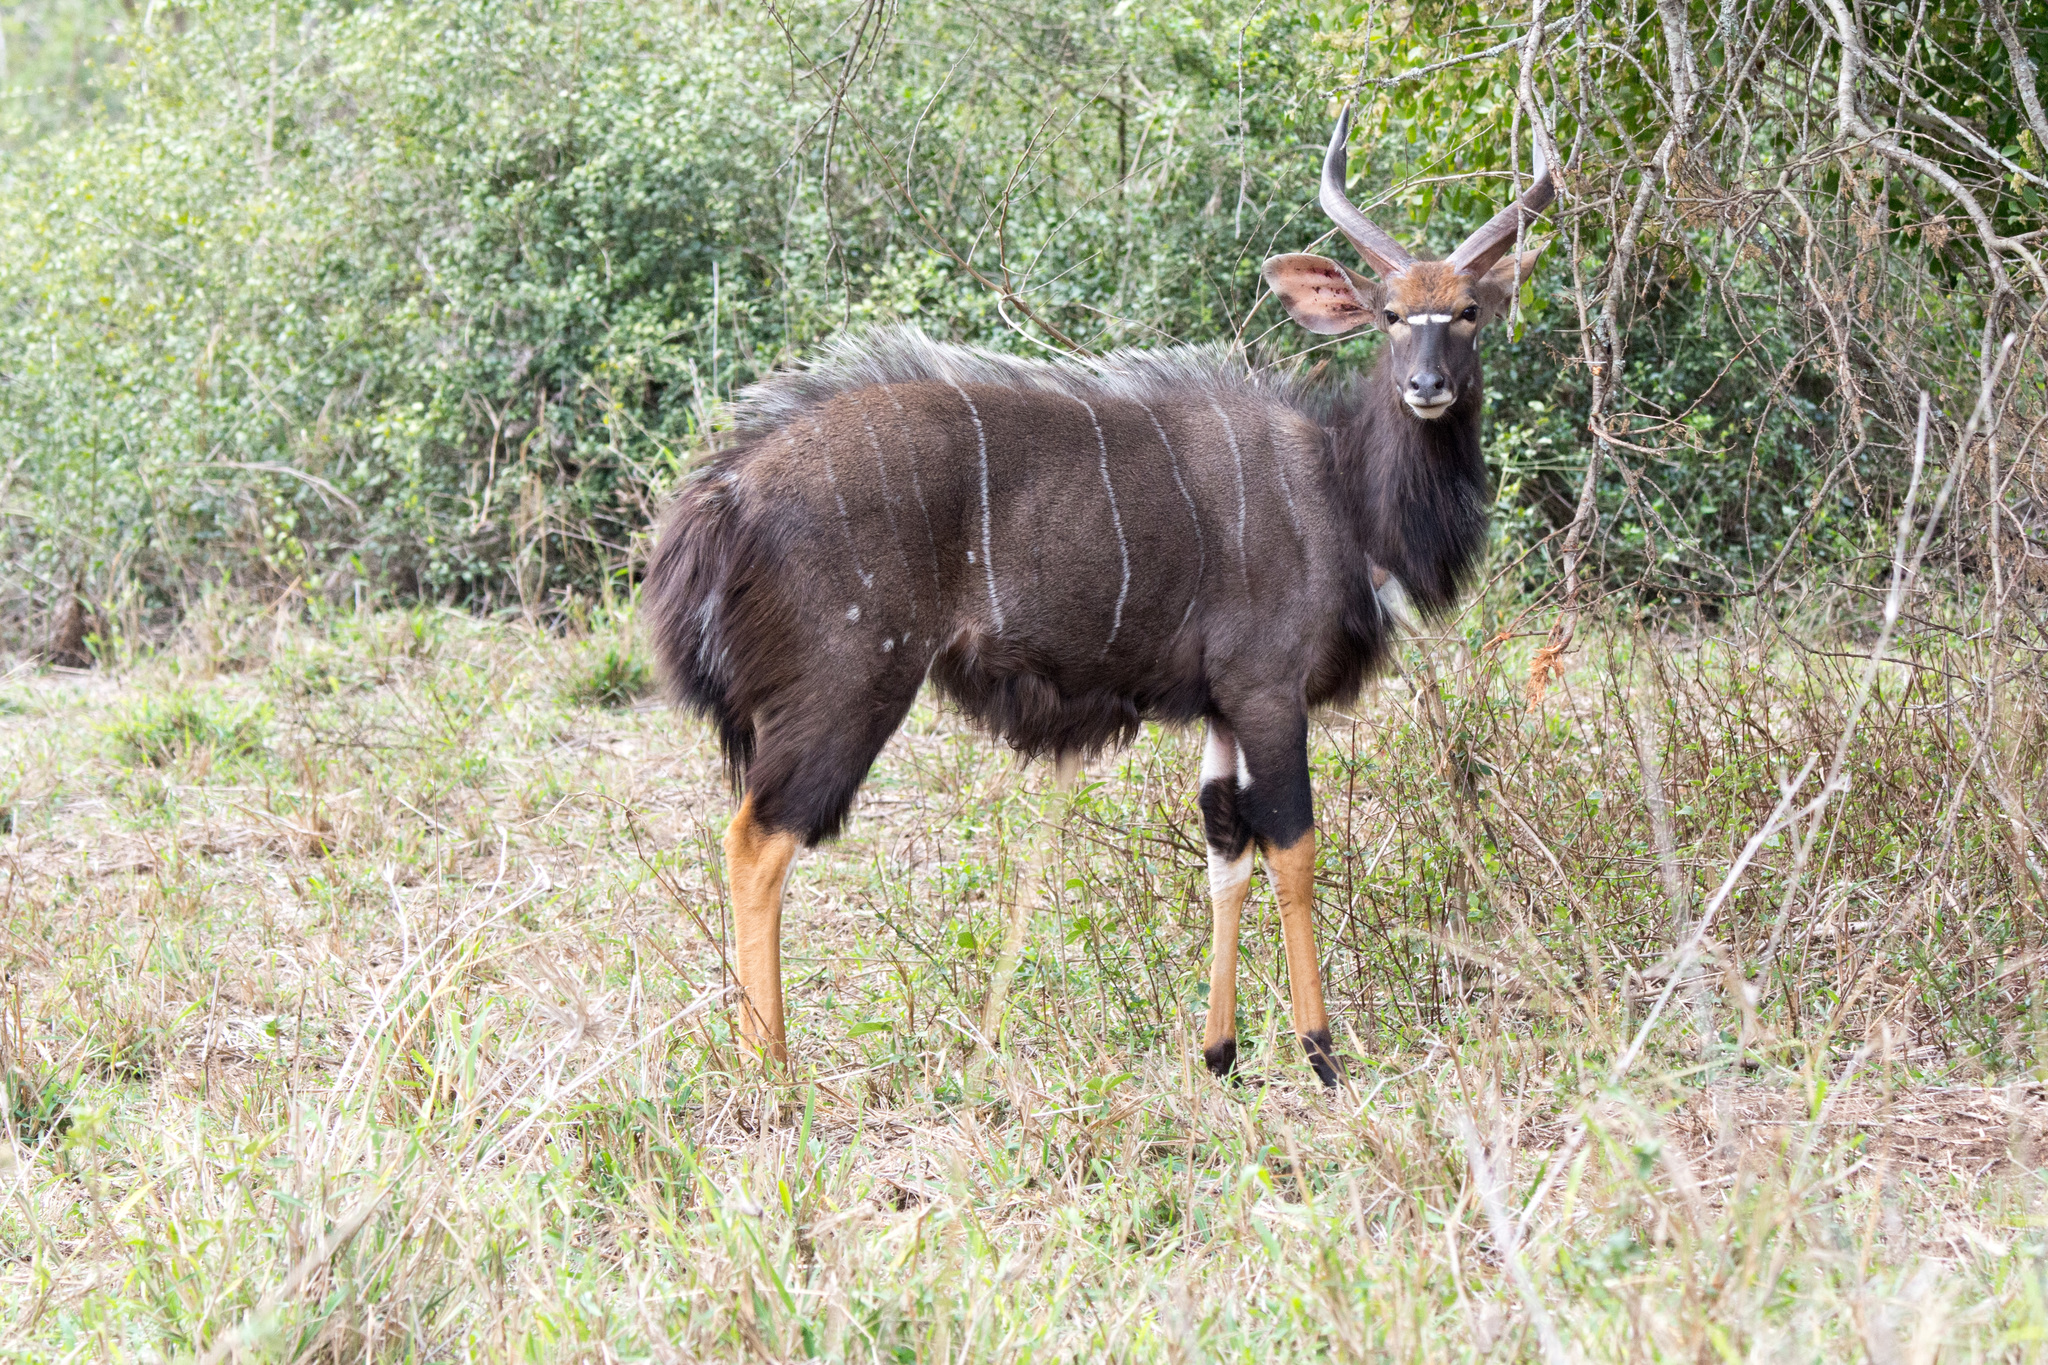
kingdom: Animalia
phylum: Chordata
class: Mammalia
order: Artiodactyla
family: Bovidae
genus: Tragelaphus
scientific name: Tragelaphus angasii
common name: Nyala
